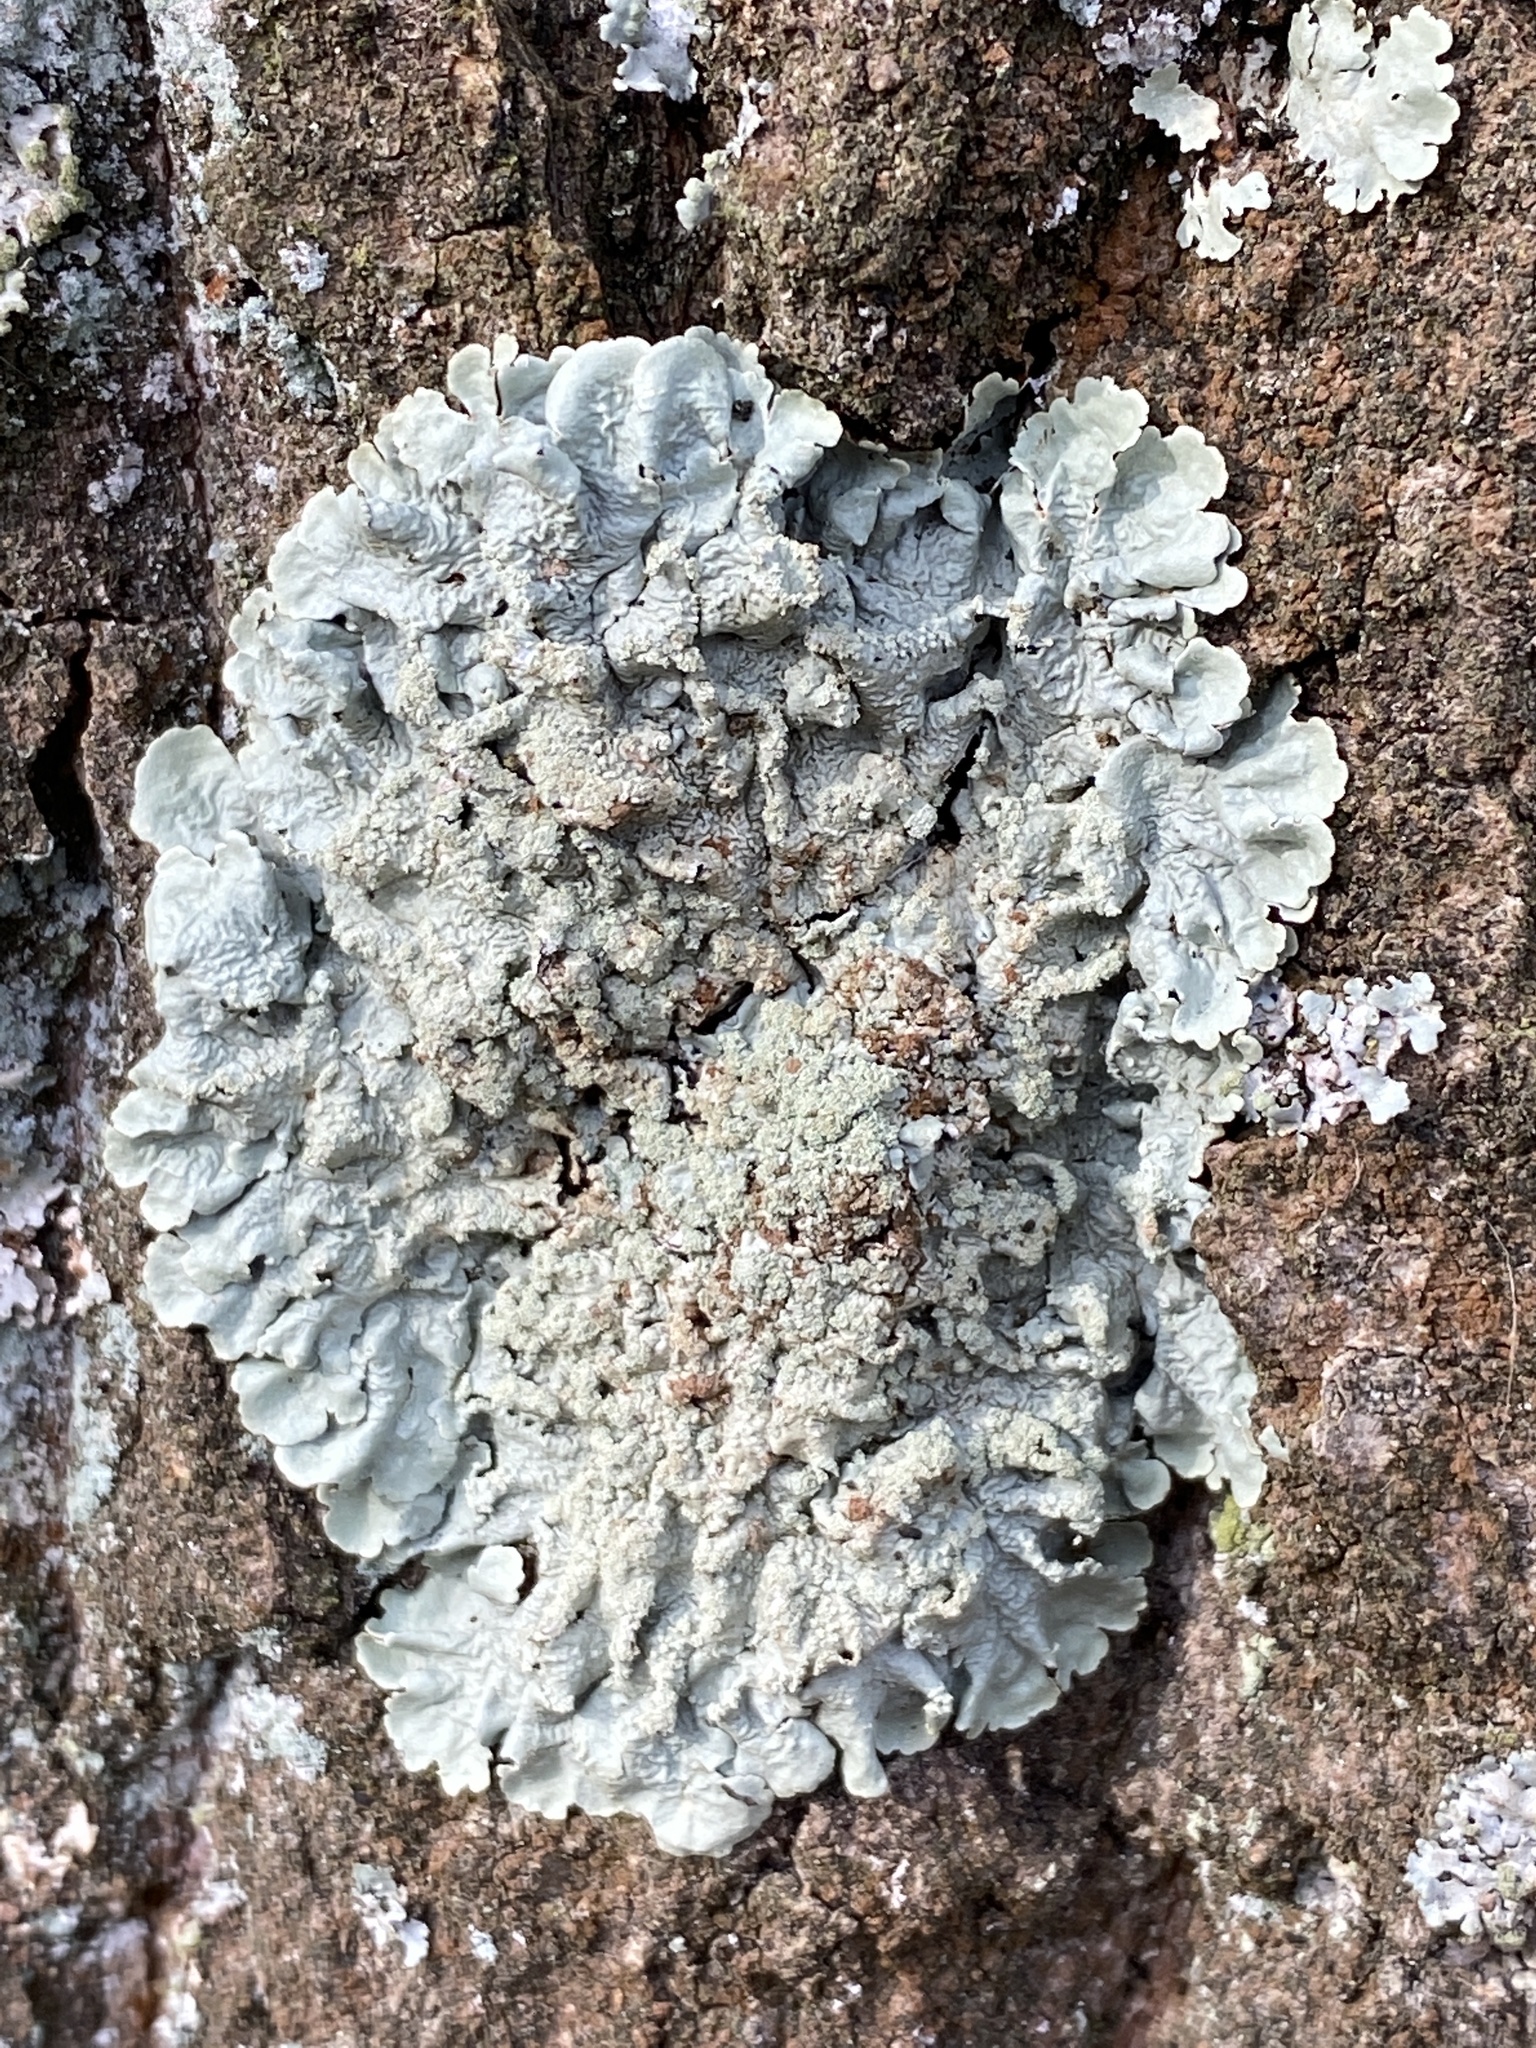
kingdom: Fungi
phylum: Ascomycota
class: Lecanoromycetes
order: Lecanorales
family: Parmeliaceae
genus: Flavoparmelia
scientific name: Flavoparmelia caperata
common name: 40-mile per hour lichen
